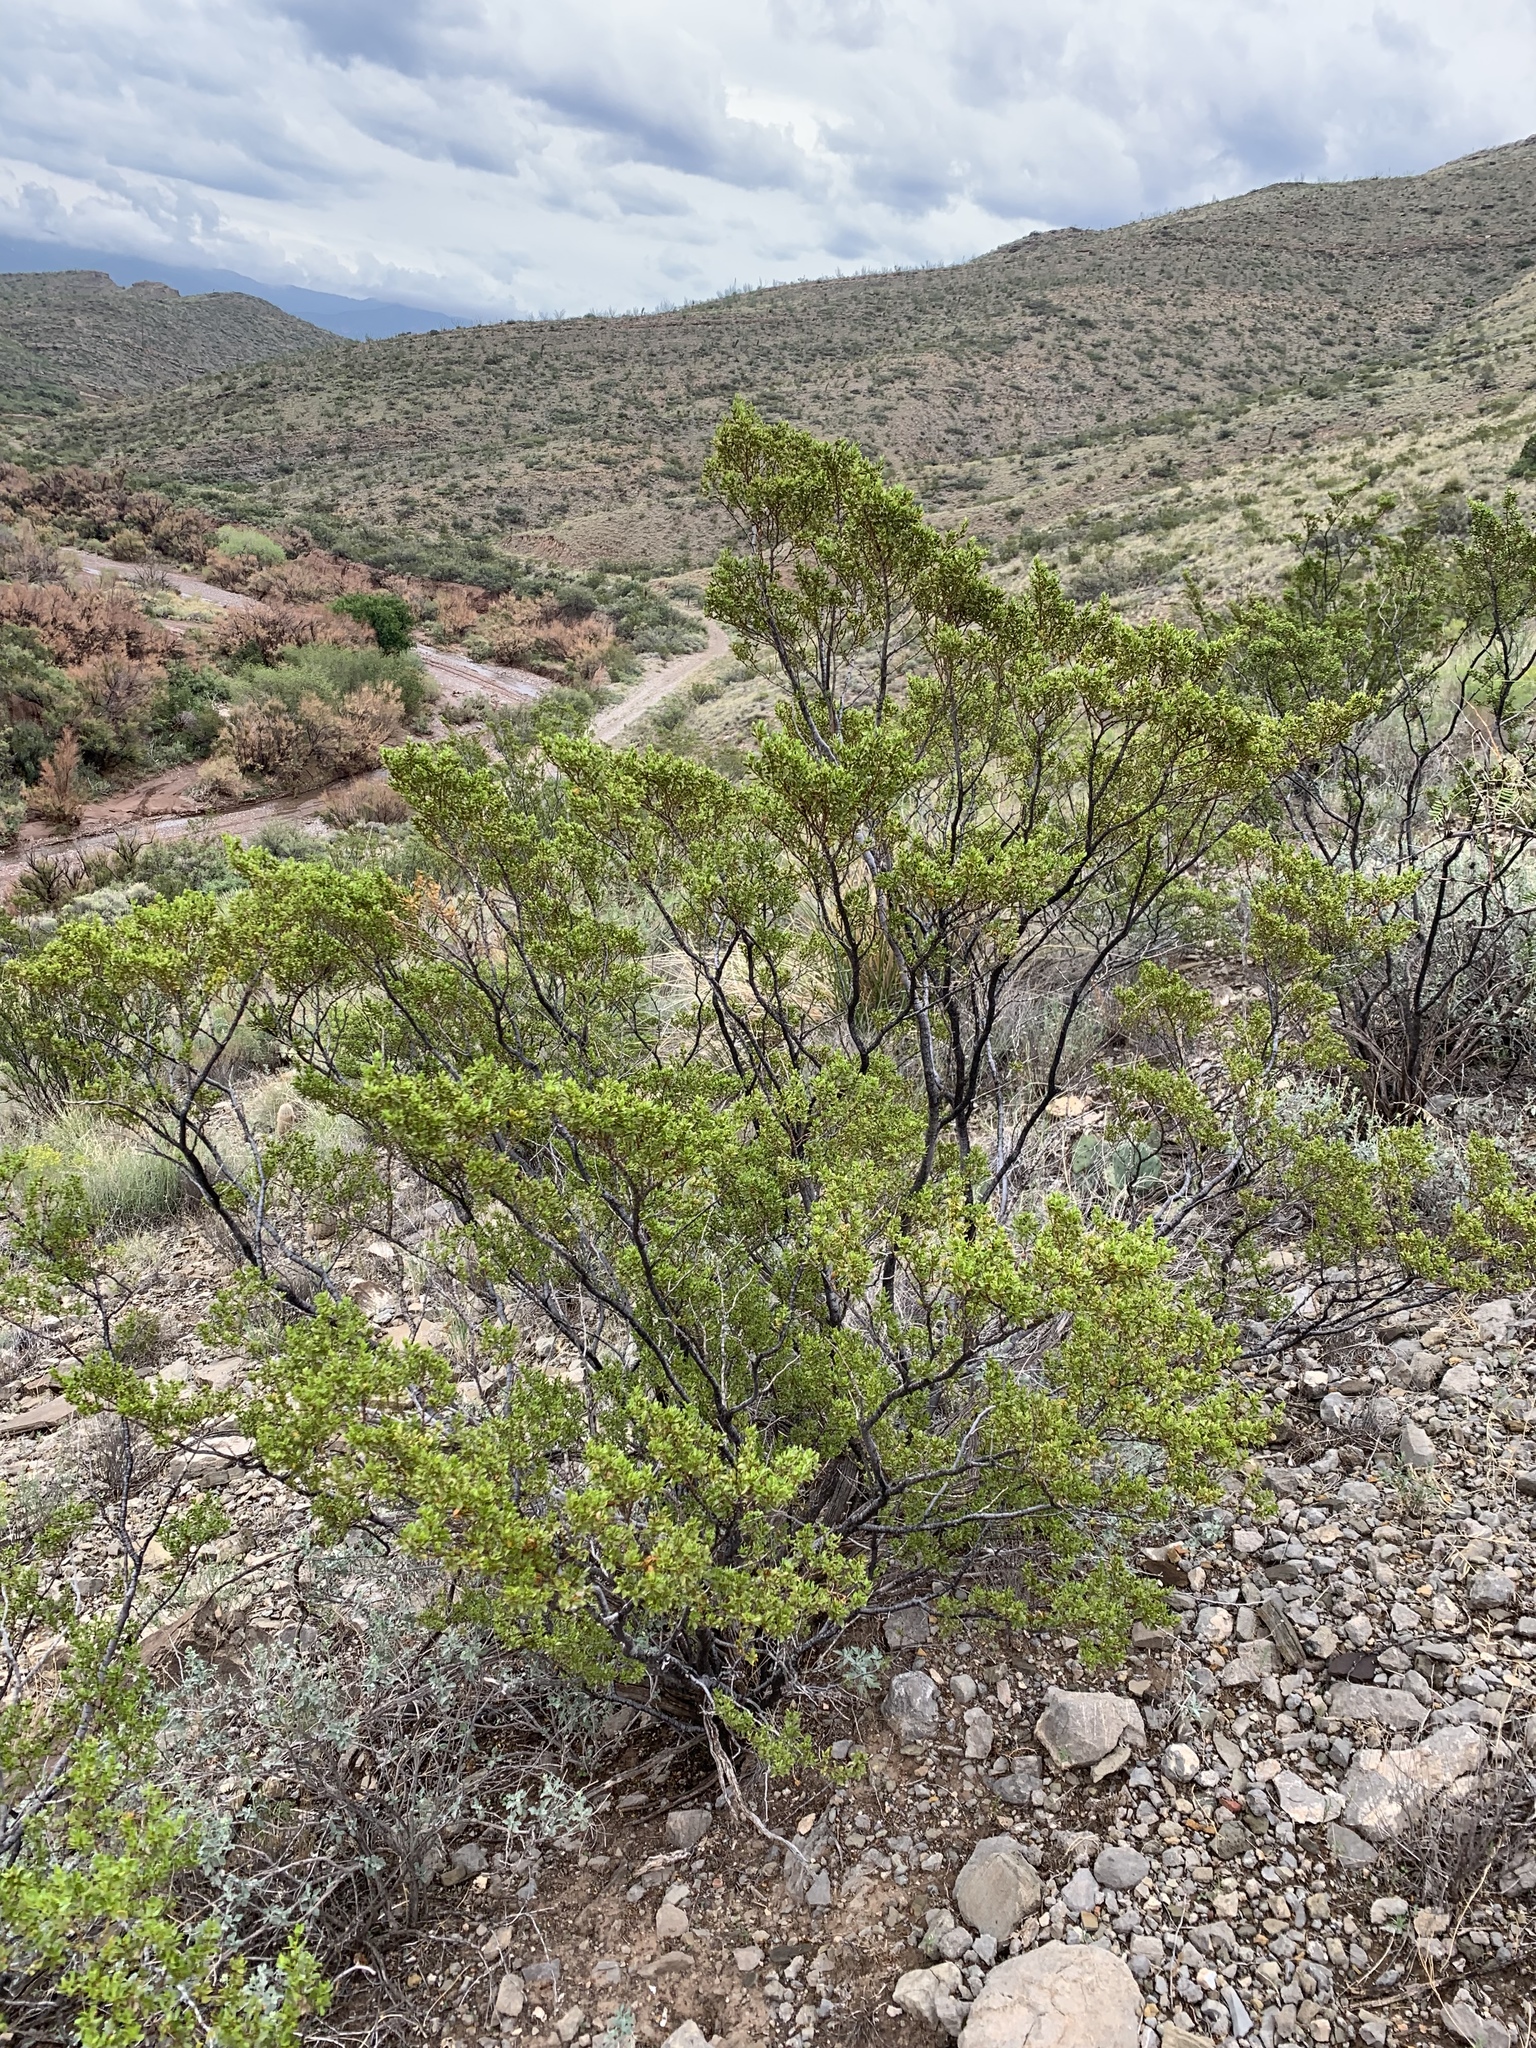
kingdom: Plantae
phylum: Tracheophyta
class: Magnoliopsida
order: Zygophyllales
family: Zygophyllaceae
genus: Larrea
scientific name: Larrea tridentata
